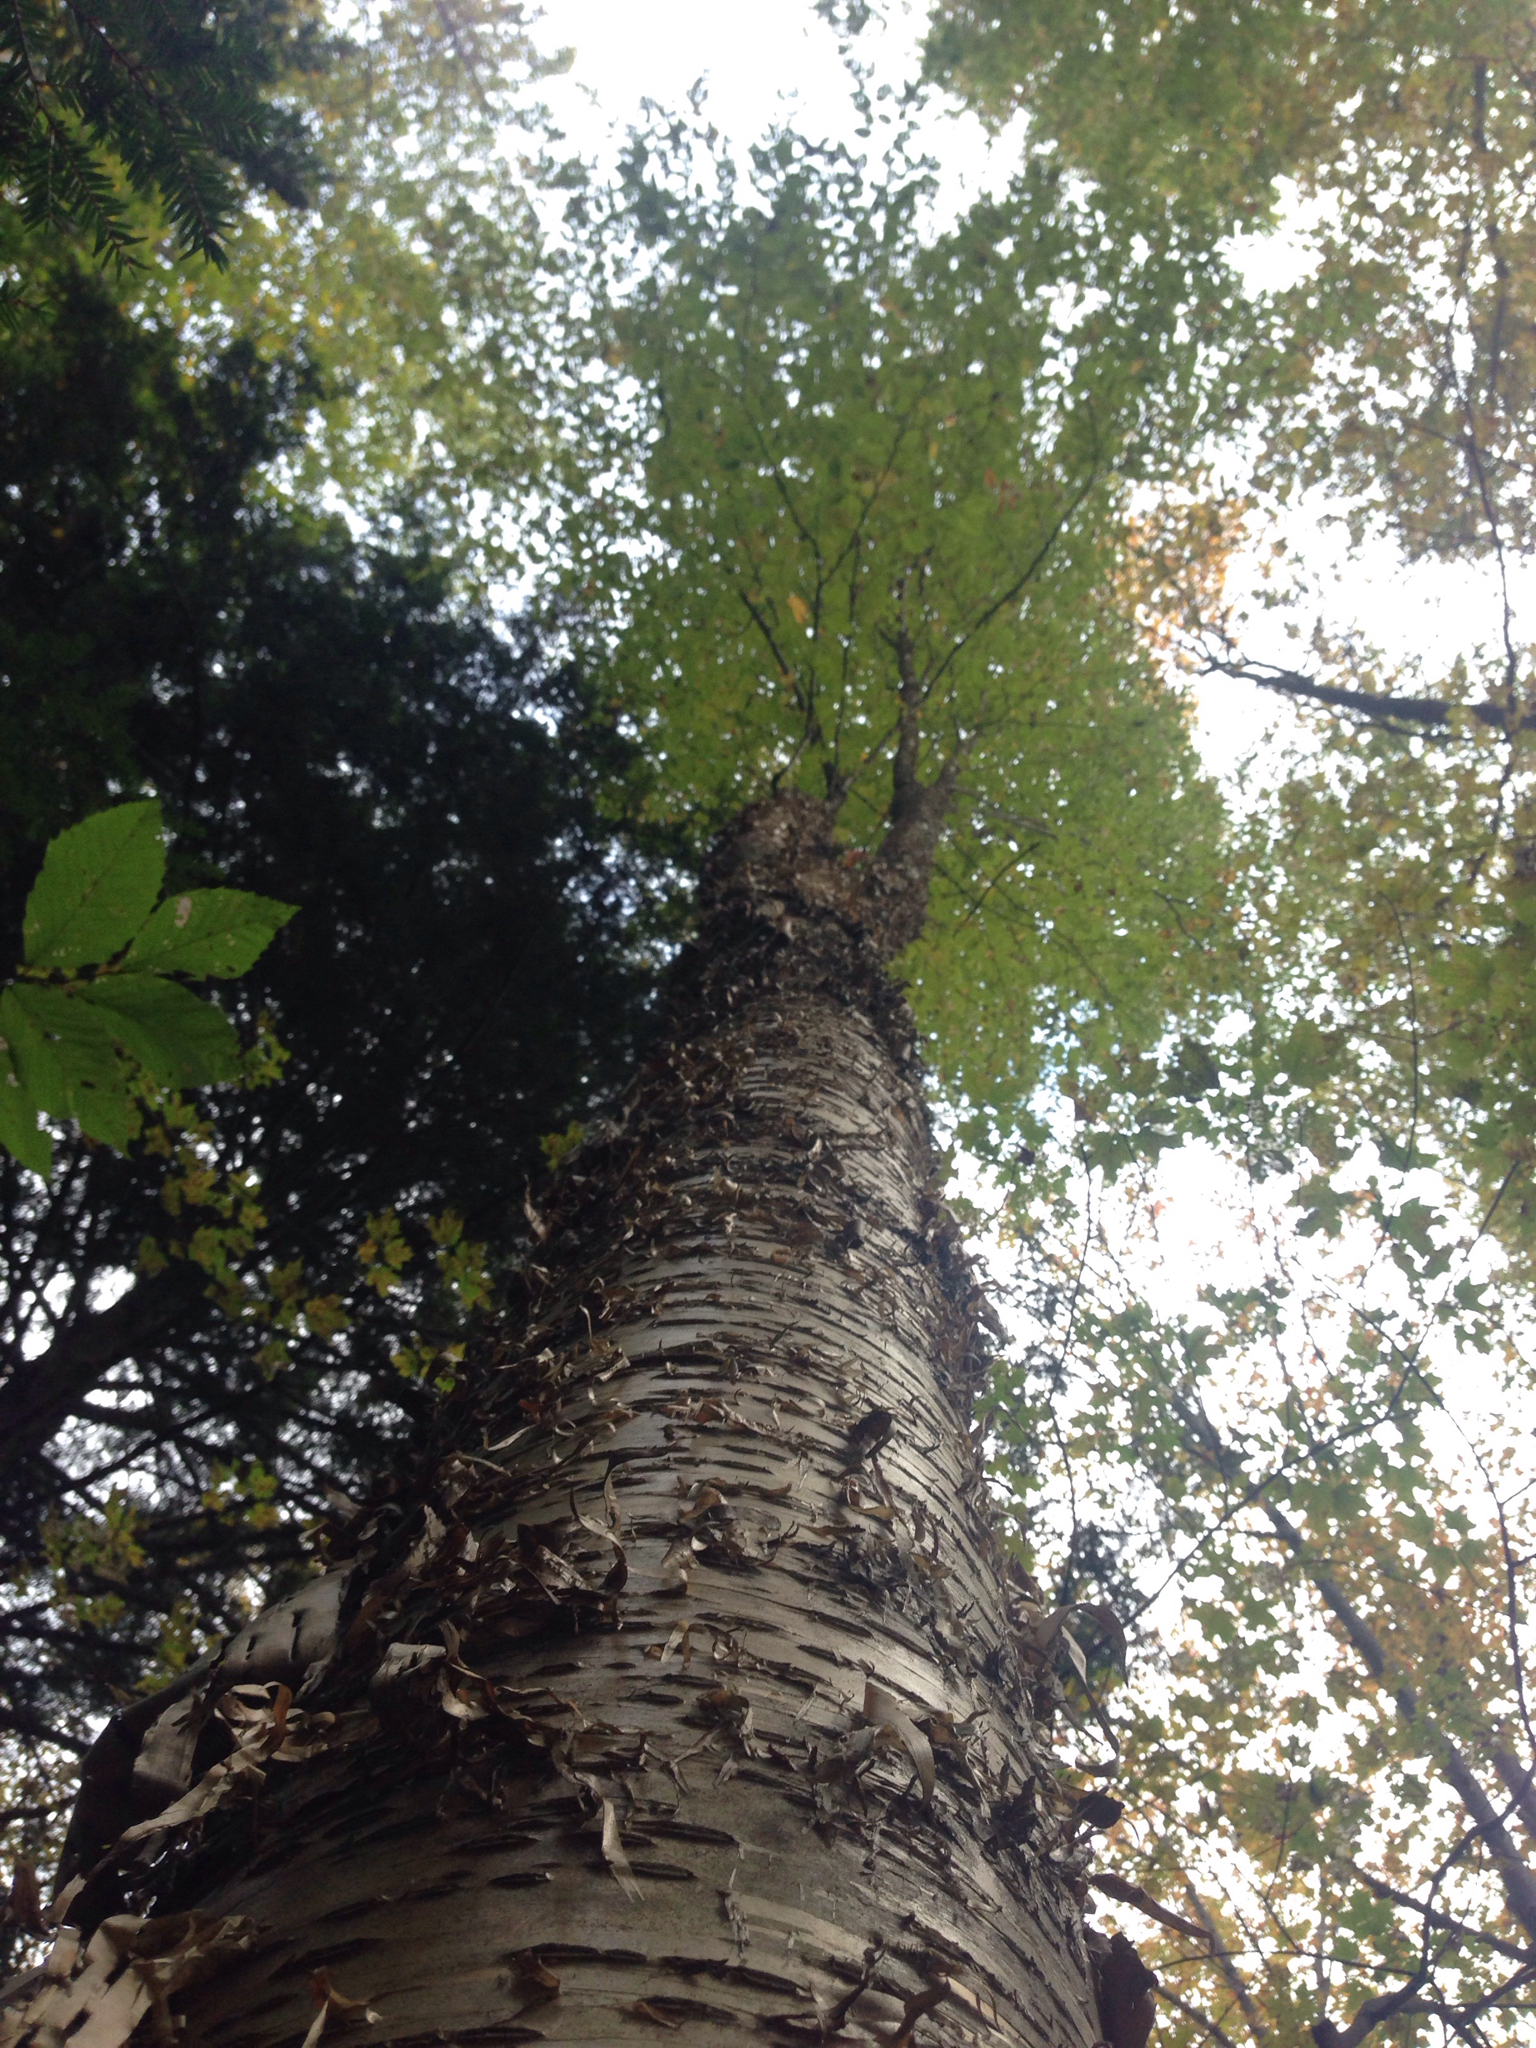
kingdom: Plantae
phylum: Tracheophyta
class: Magnoliopsida
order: Fagales
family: Betulaceae
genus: Betula
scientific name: Betula alleghaniensis
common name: Yellow birch
